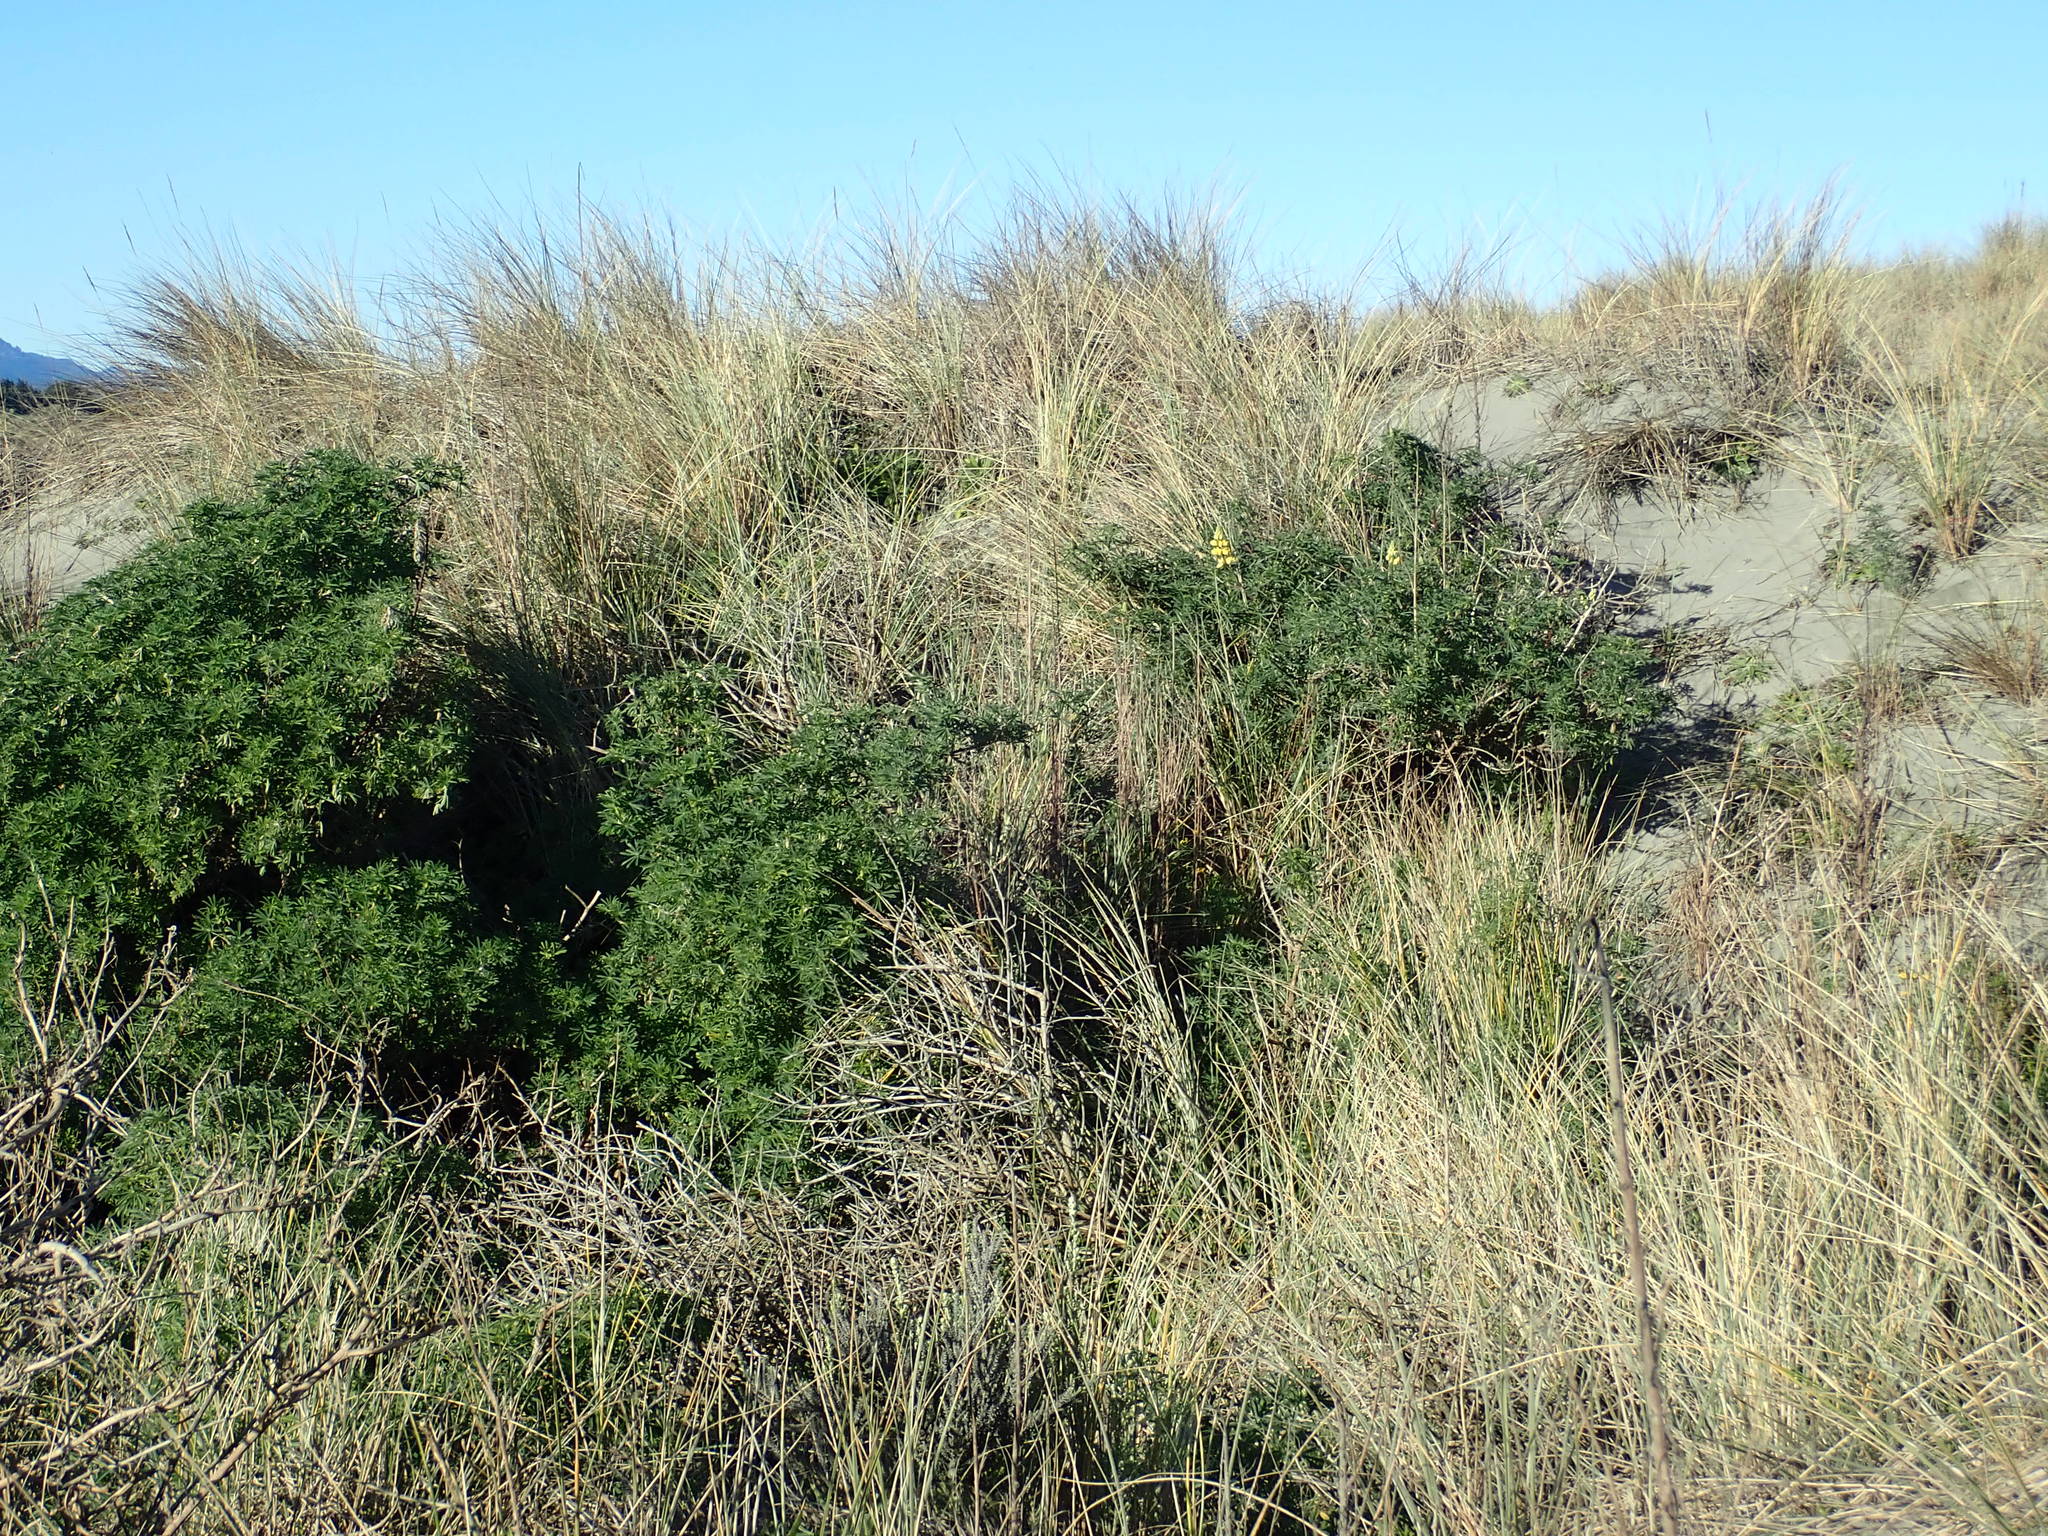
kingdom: Plantae
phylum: Tracheophyta
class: Magnoliopsida
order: Fabales
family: Fabaceae
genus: Lupinus
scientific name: Lupinus arboreus
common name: Yellow bush lupine
